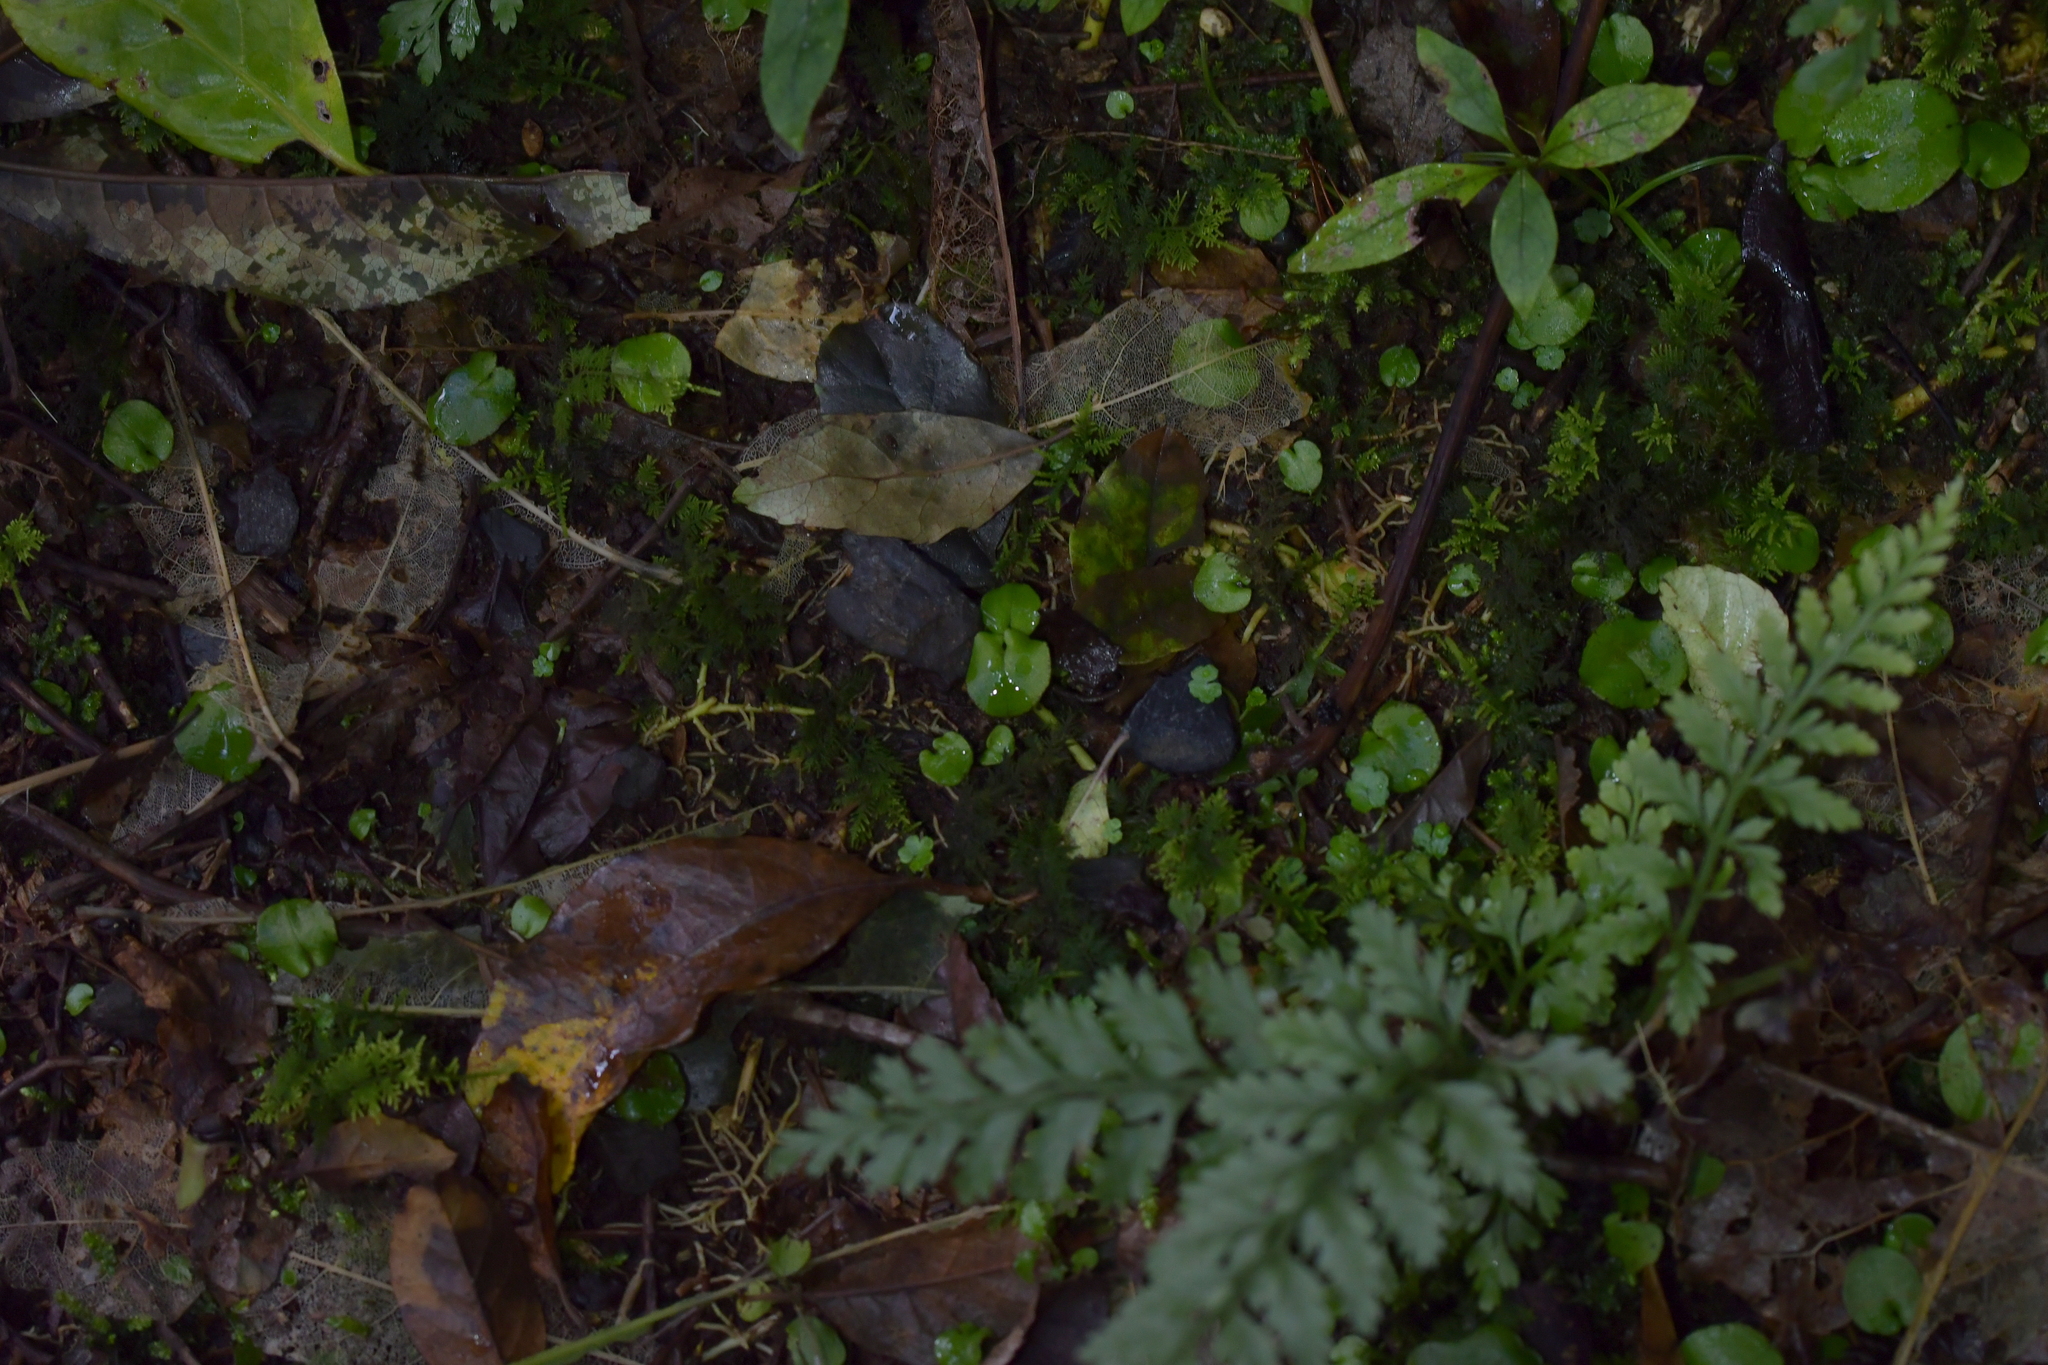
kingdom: Plantae
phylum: Tracheophyta
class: Liliopsida
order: Asparagales
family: Orchidaceae
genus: Corybas
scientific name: Corybas iridescens
